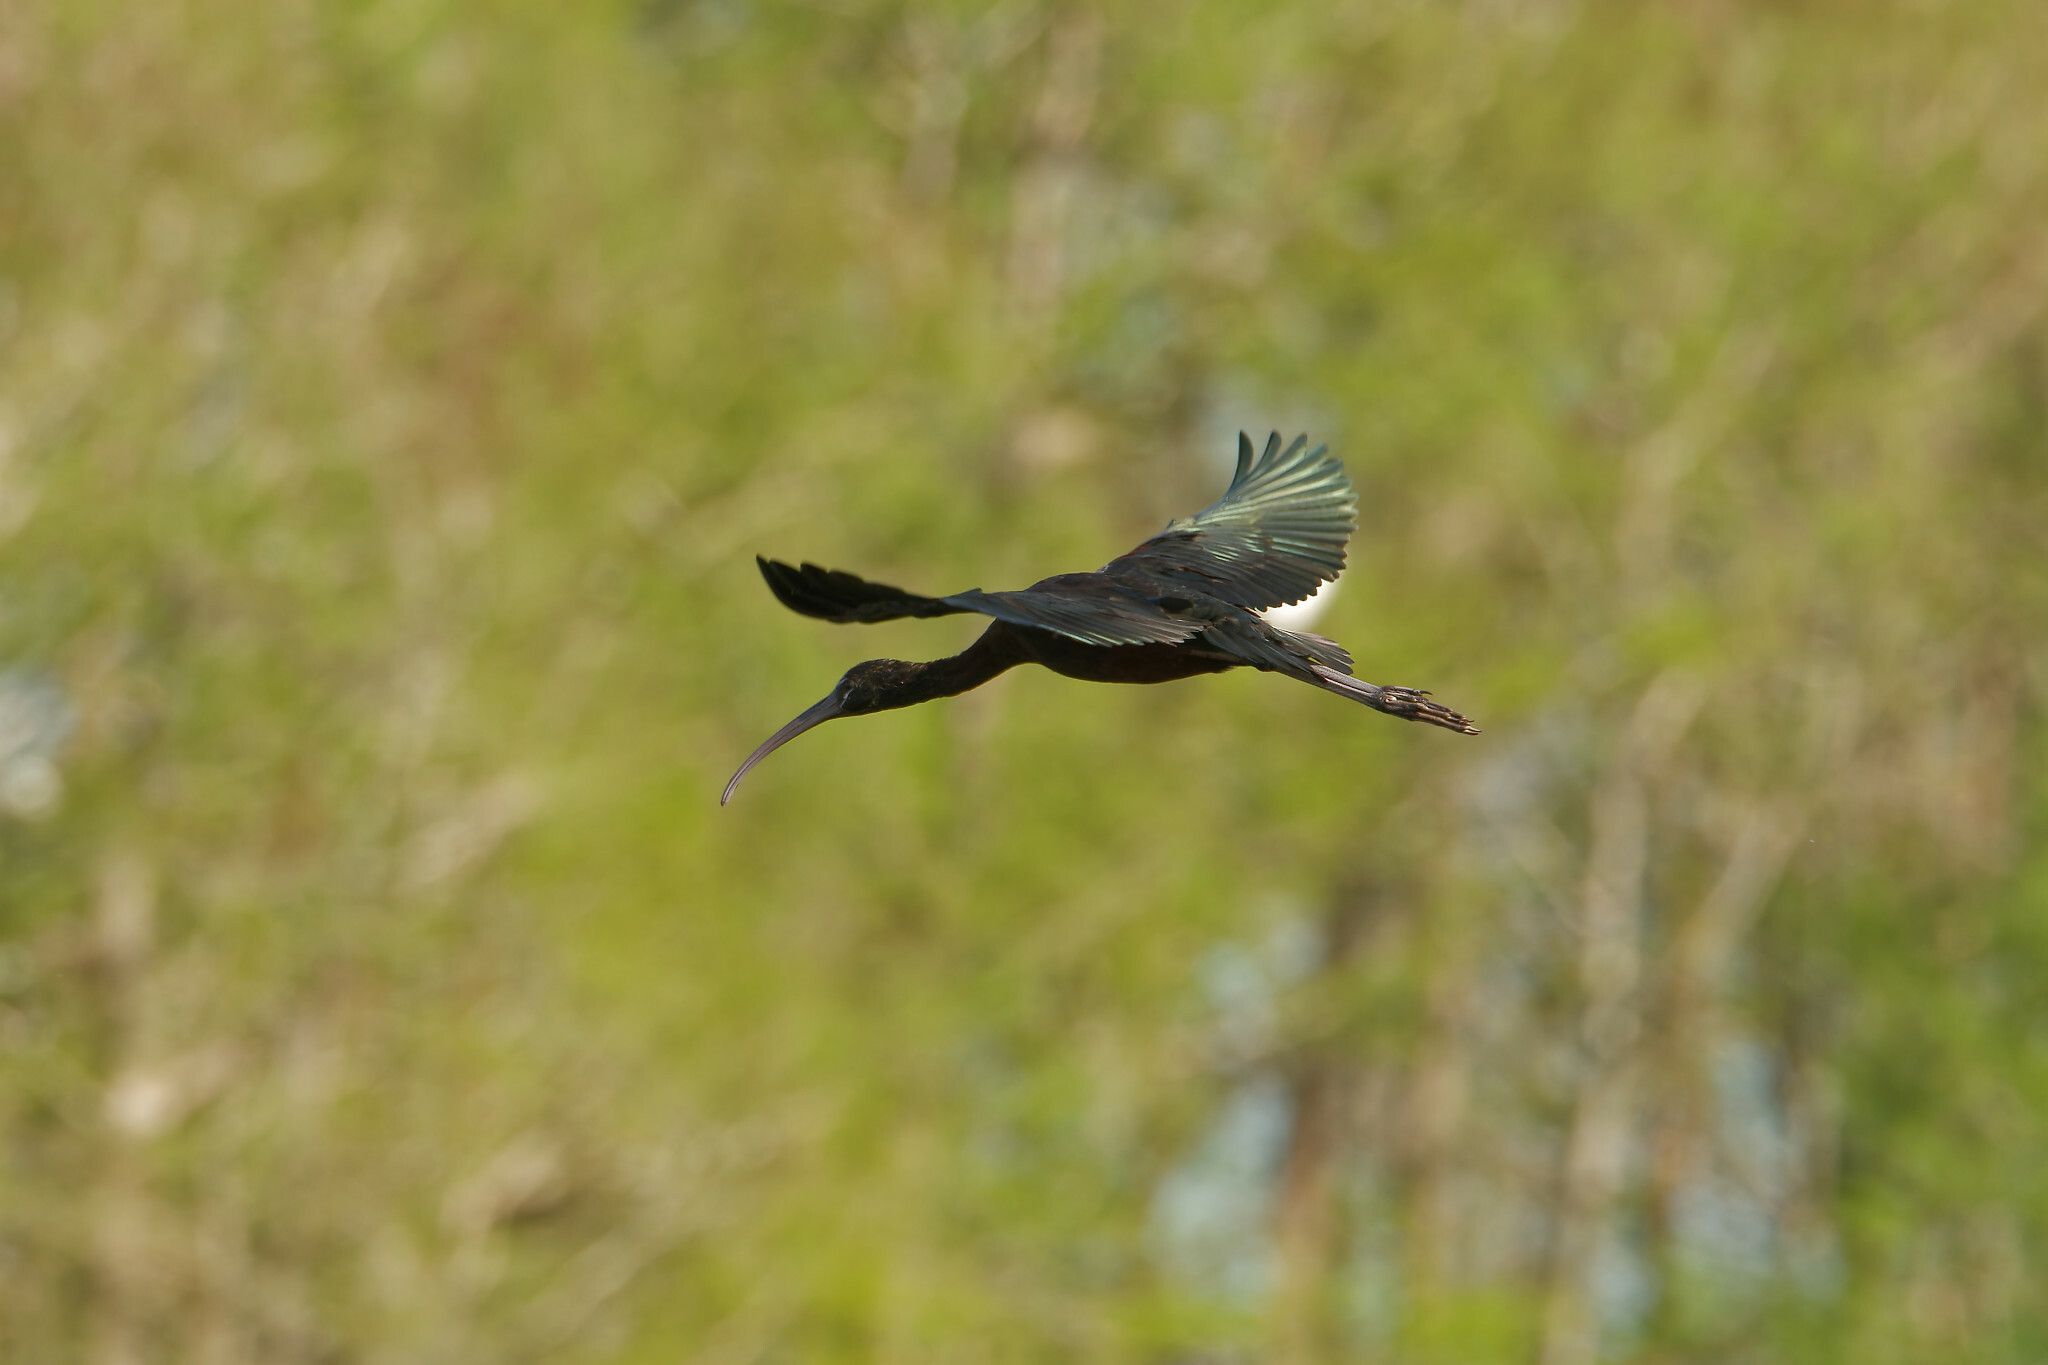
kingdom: Animalia
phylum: Chordata
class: Aves
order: Pelecaniformes
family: Threskiornithidae
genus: Plegadis
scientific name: Plegadis falcinellus
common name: Glossy ibis
